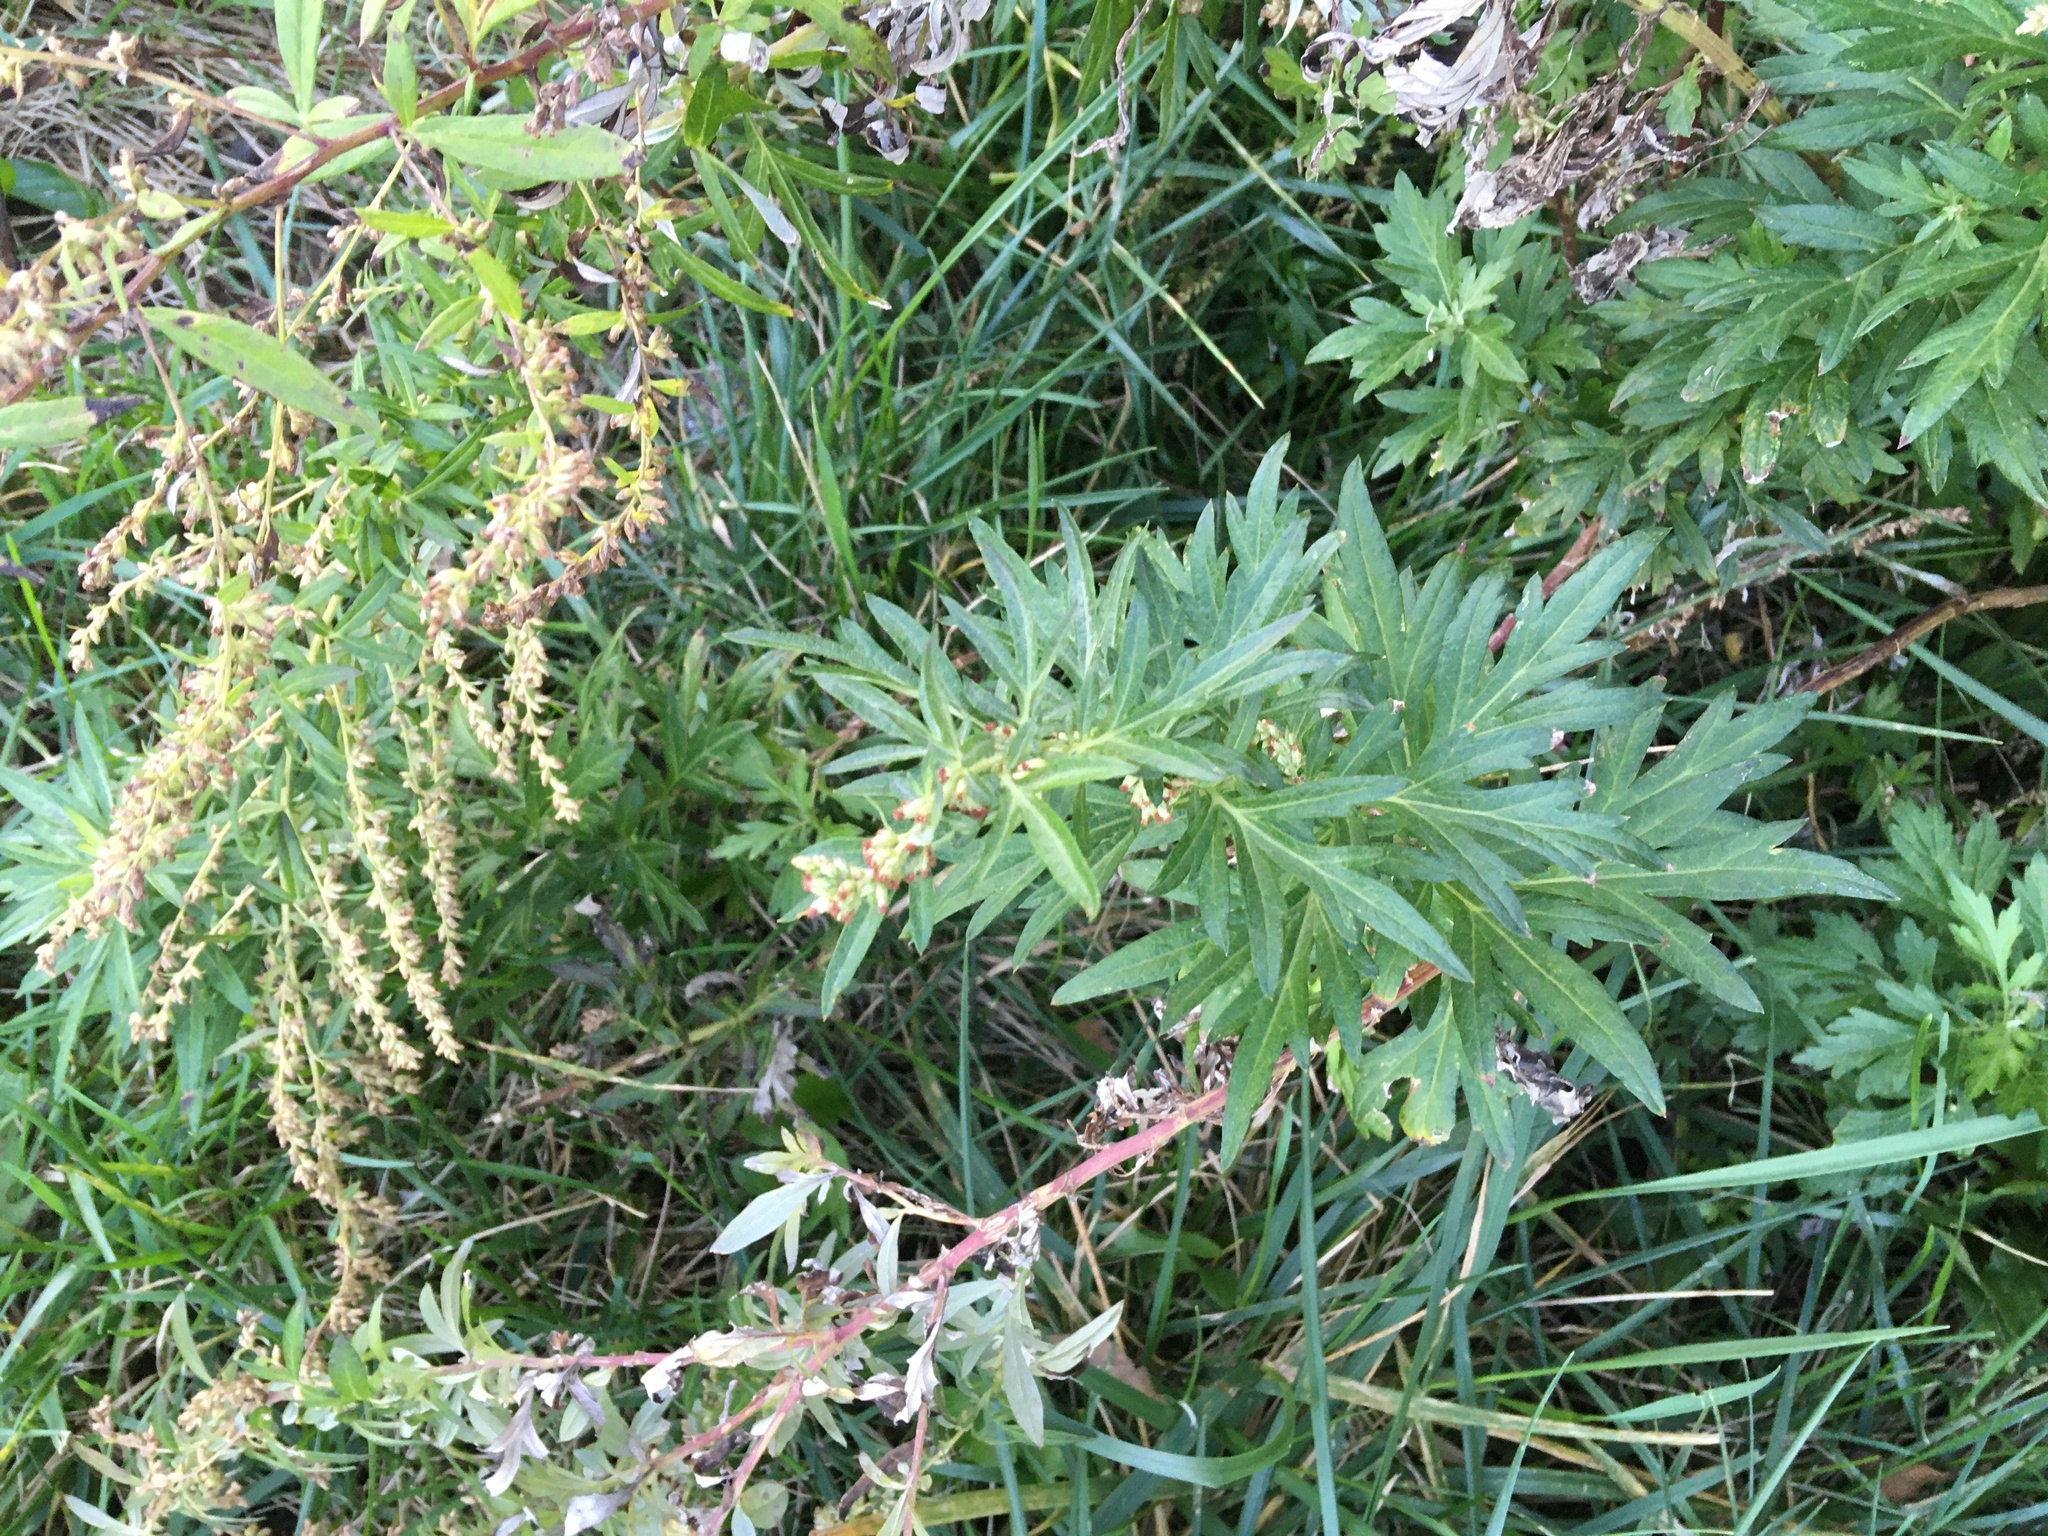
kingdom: Plantae
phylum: Tracheophyta
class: Magnoliopsida
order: Asterales
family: Asteraceae
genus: Artemisia
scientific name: Artemisia vulgaris
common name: Mugwort
